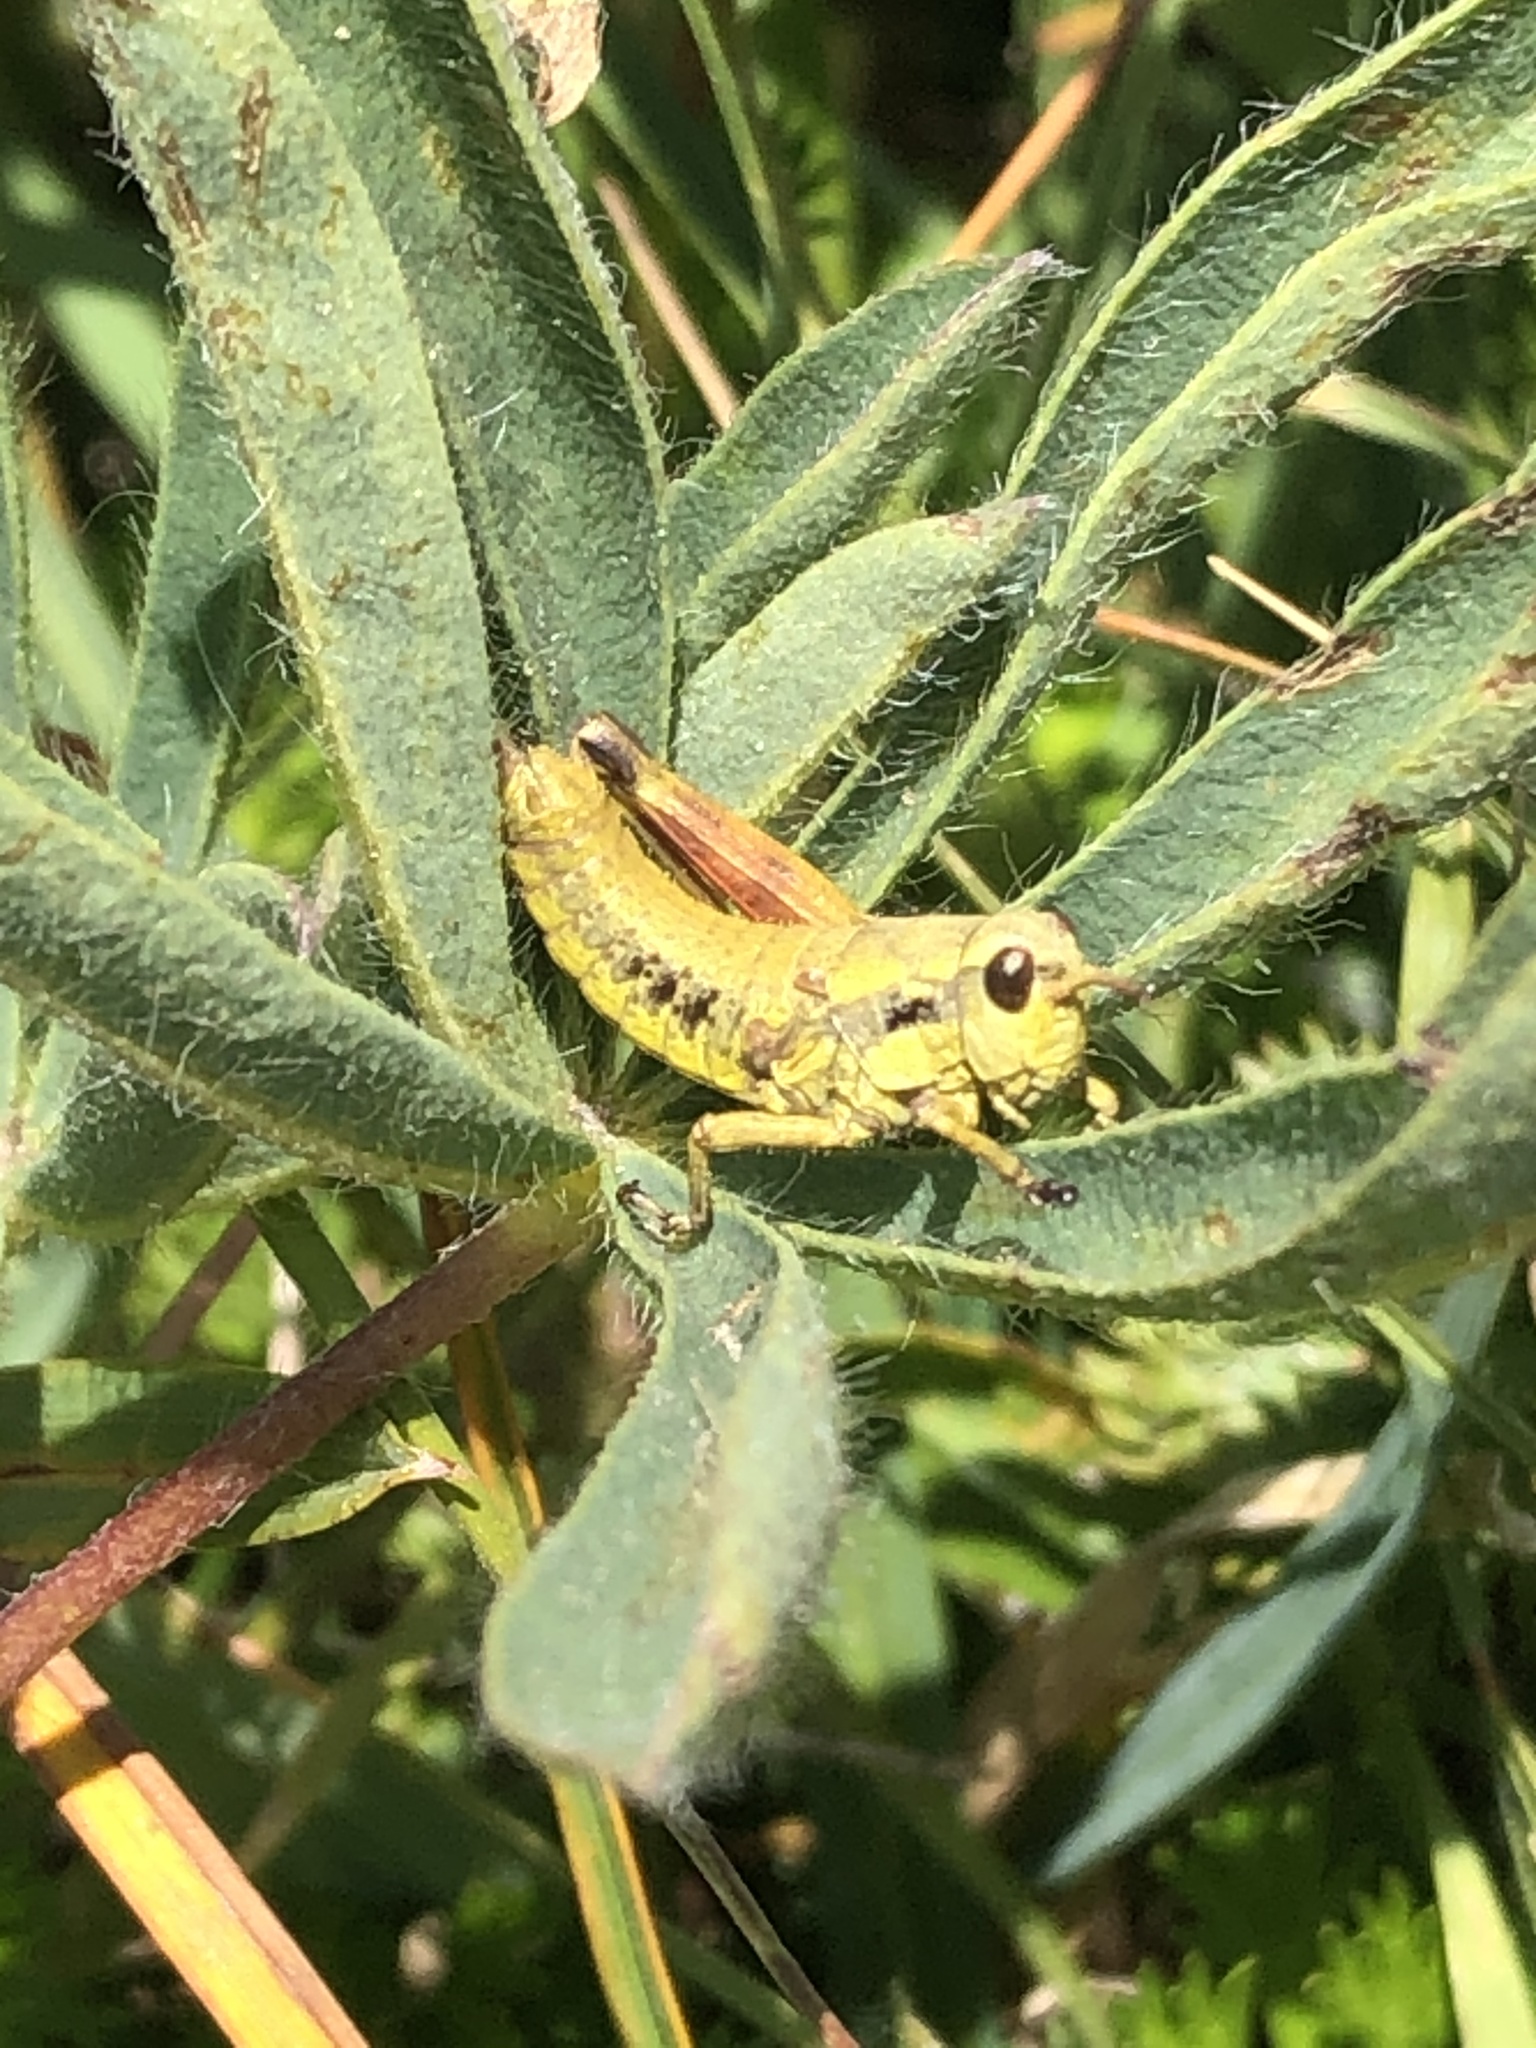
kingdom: Animalia
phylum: Arthropoda
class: Insecta
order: Orthoptera
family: Acrididae
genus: Prumnacris
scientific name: Prumnacris rainierensis
